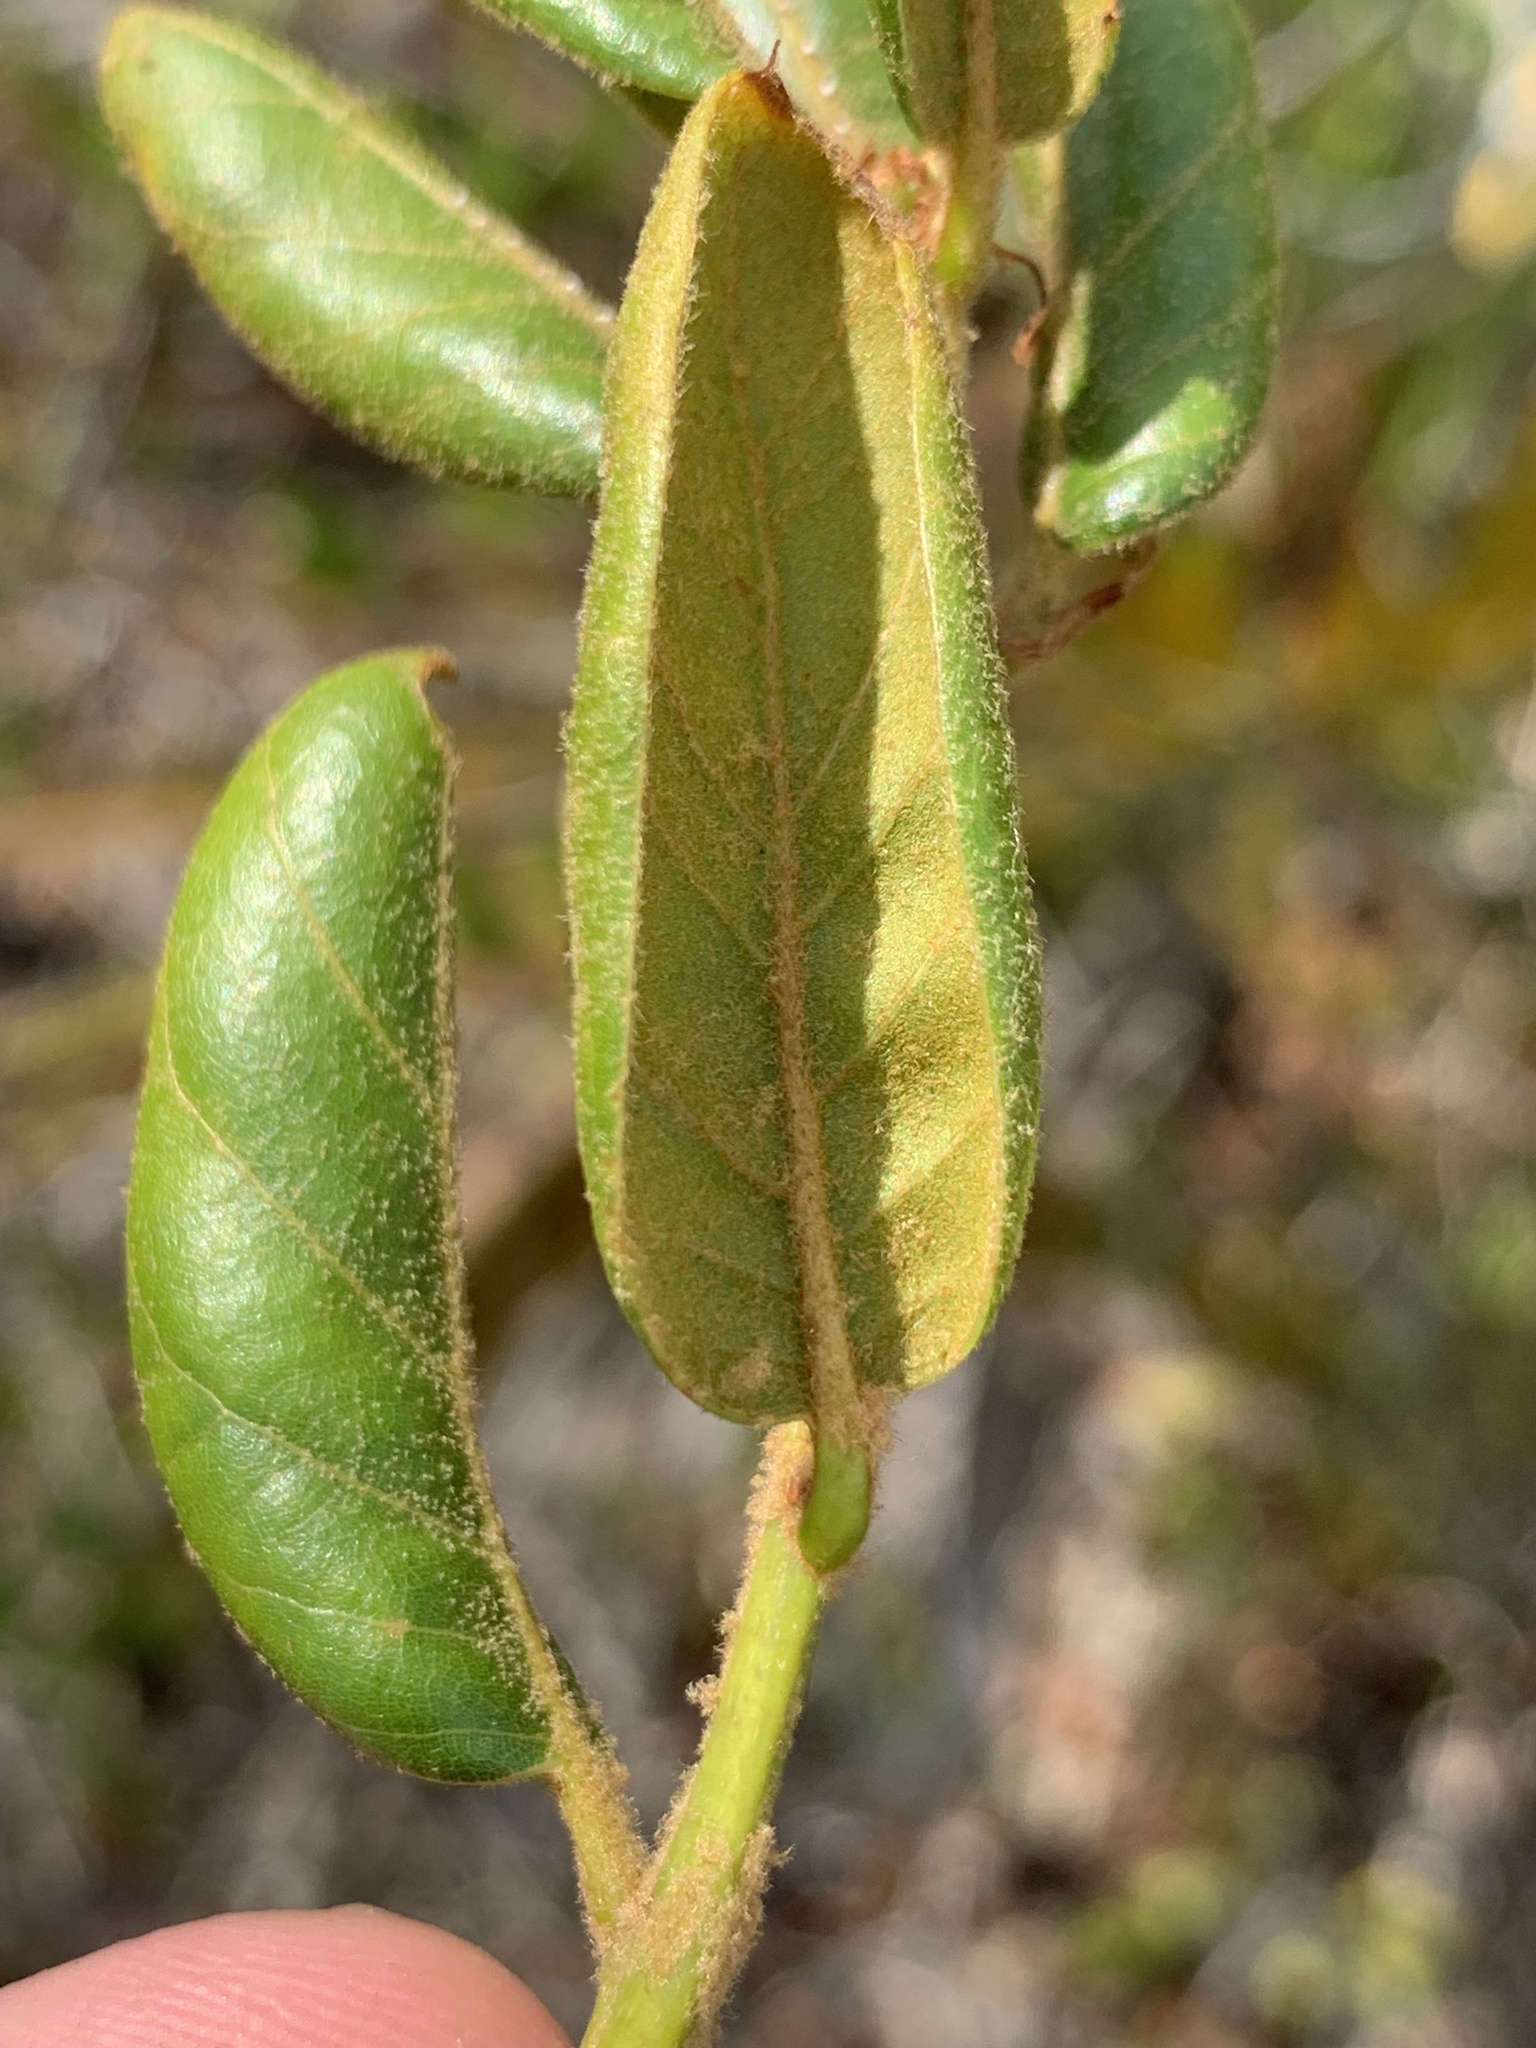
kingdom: Plantae
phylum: Tracheophyta
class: Magnoliopsida
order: Fagales
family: Fagaceae
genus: Quercus
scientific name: Quercus inopina
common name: Sandhill oak
